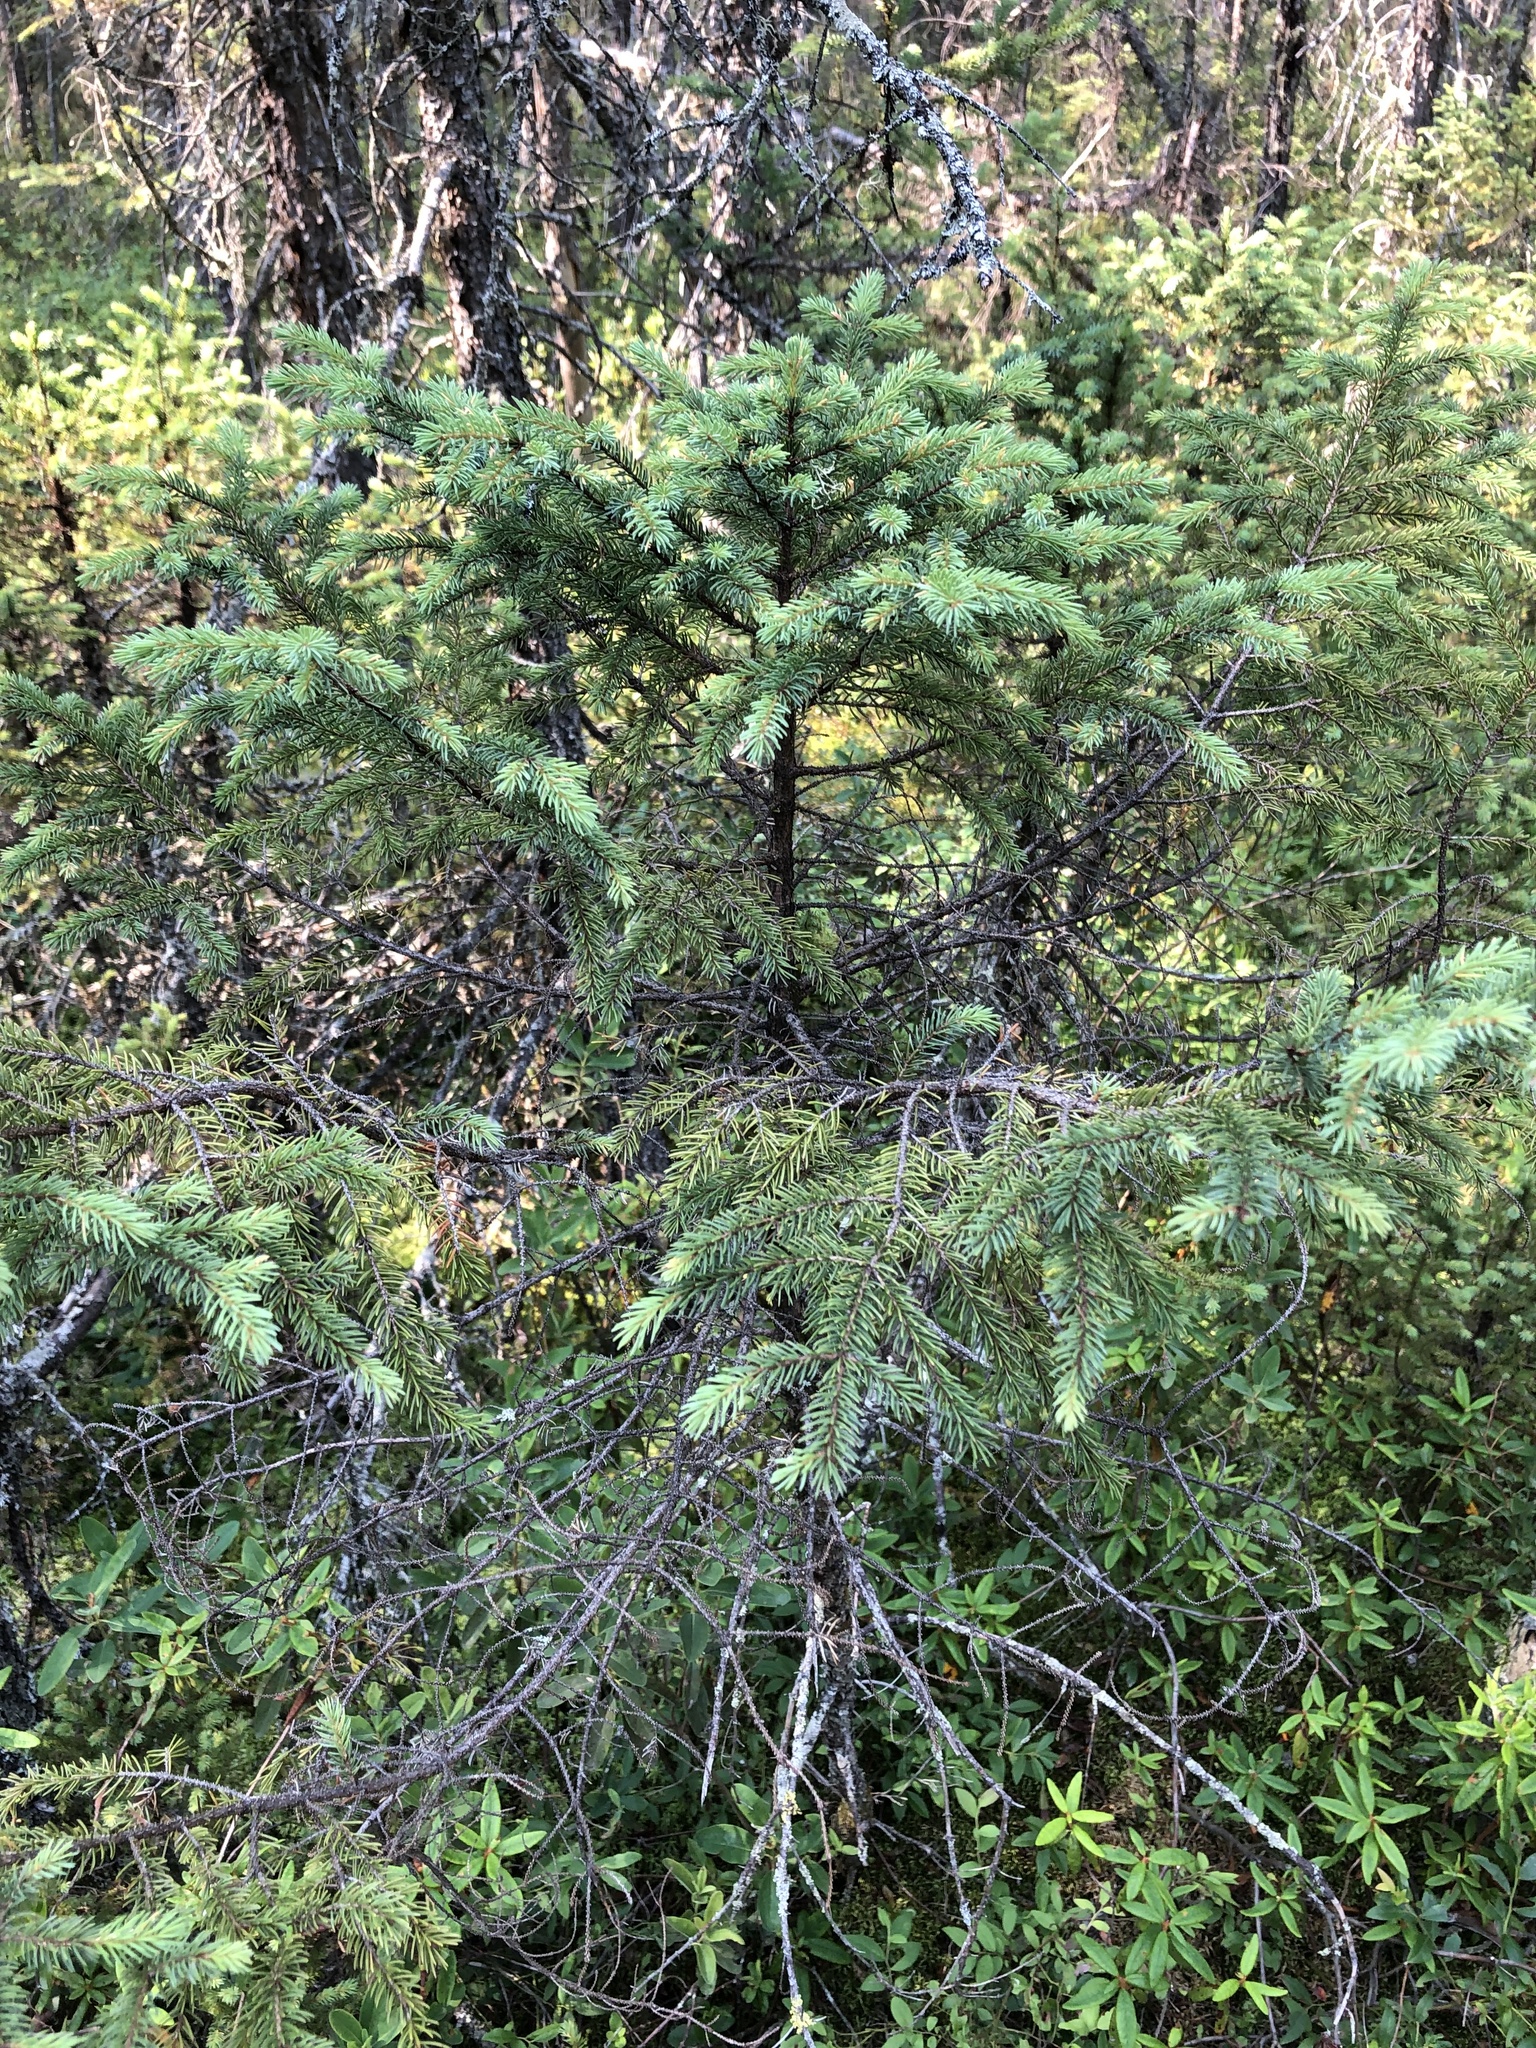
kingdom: Plantae
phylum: Tracheophyta
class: Pinopsida
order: Pinales
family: Pinaceae
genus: Picea
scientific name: Picea mariana
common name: Black spruce
